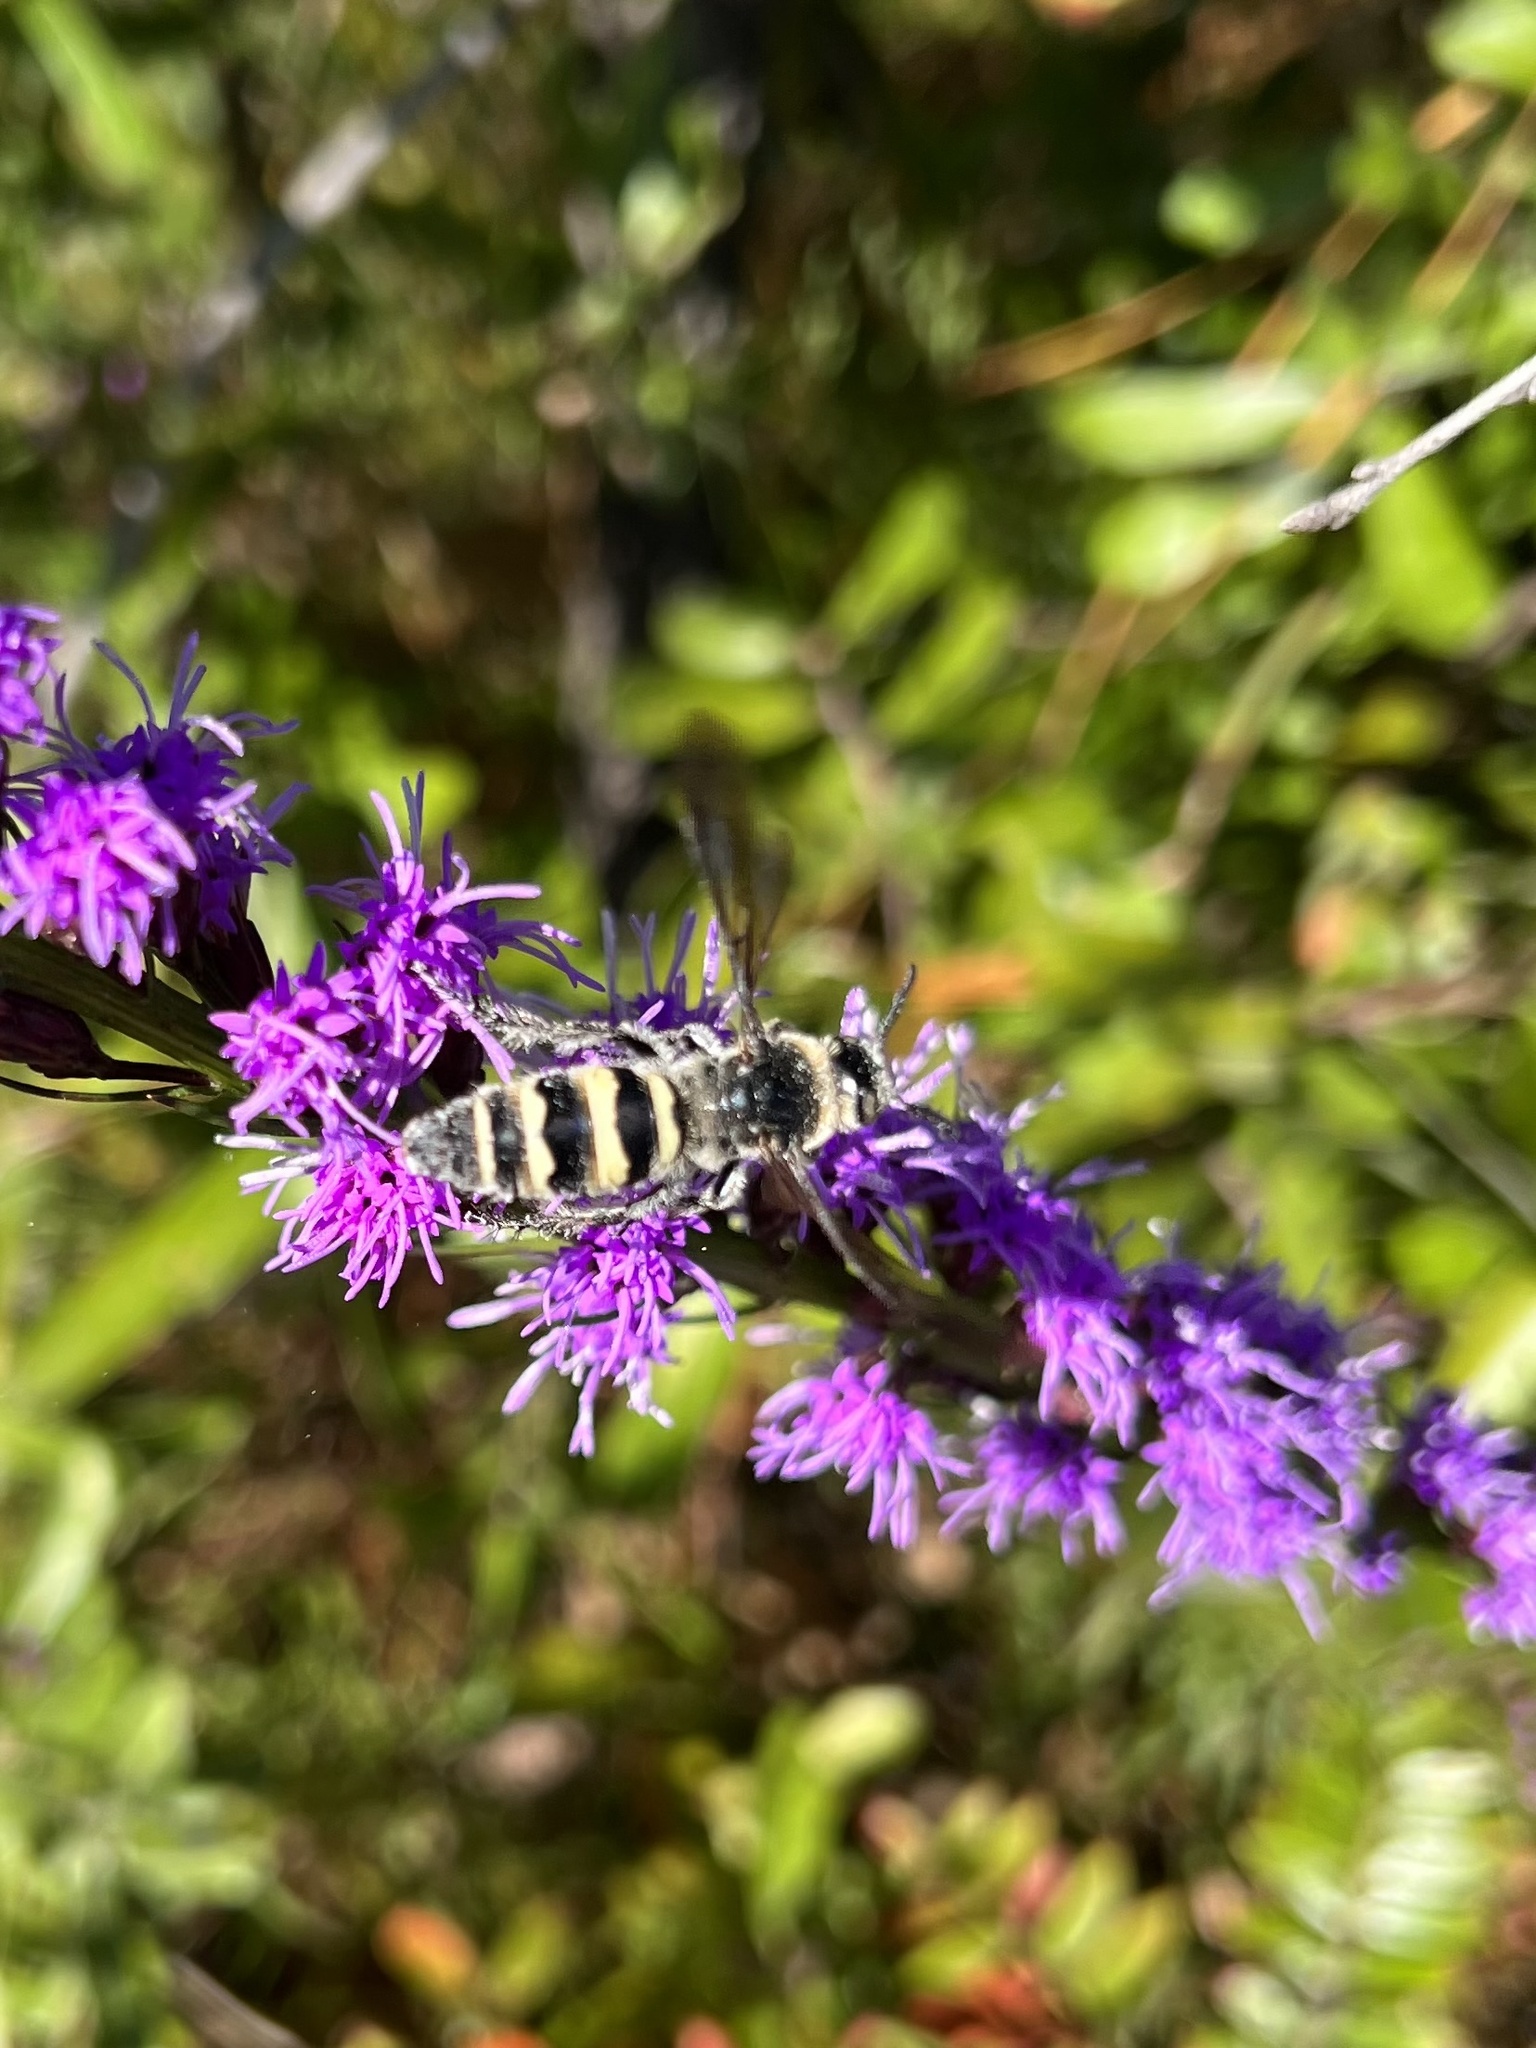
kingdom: Animalia
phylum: Arthropoda
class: Insecta
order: Hymenoptera
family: Scoliidae
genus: Dielis
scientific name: Dielis
